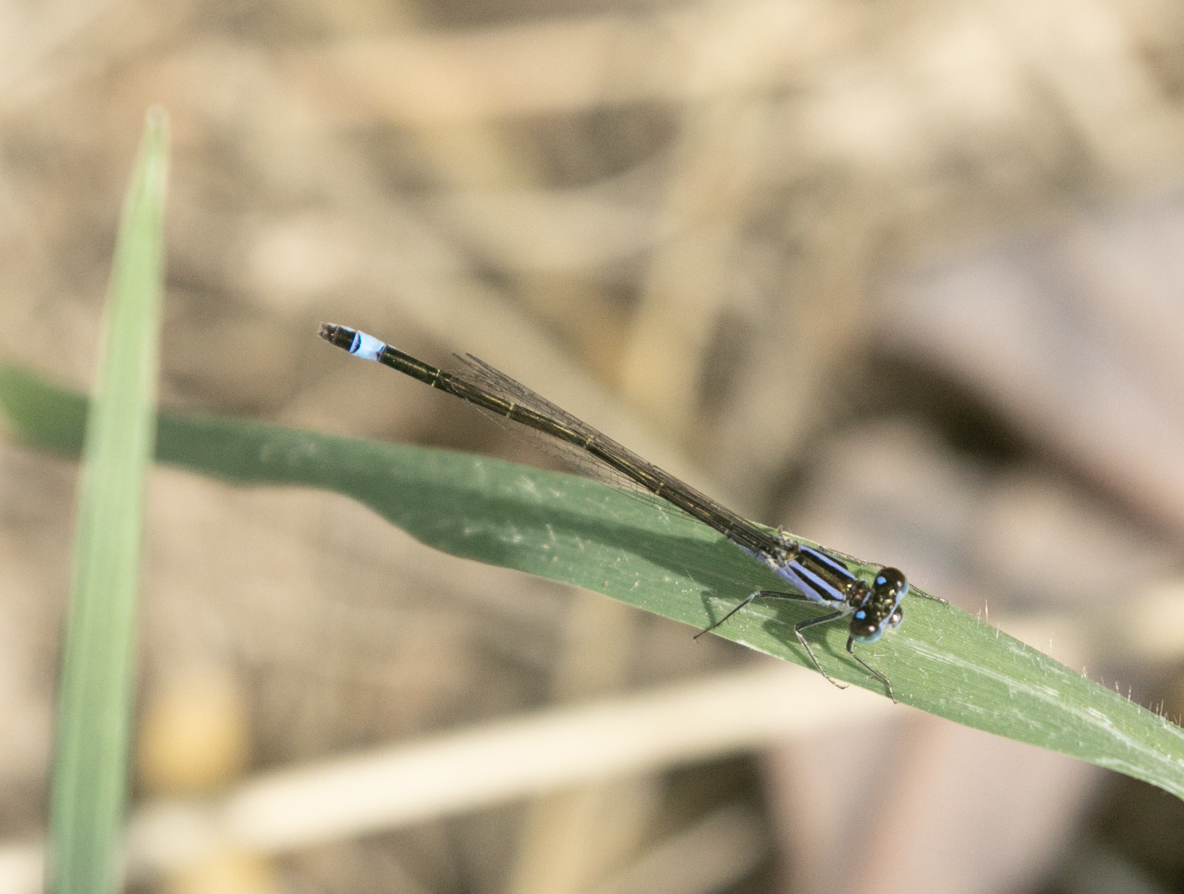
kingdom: Animalia
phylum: Arthropoda
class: Insecta
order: Odonata
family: Coenagrionidae
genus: Ischnura
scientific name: Ischnura elegans
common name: Blue-tailed damselfly
